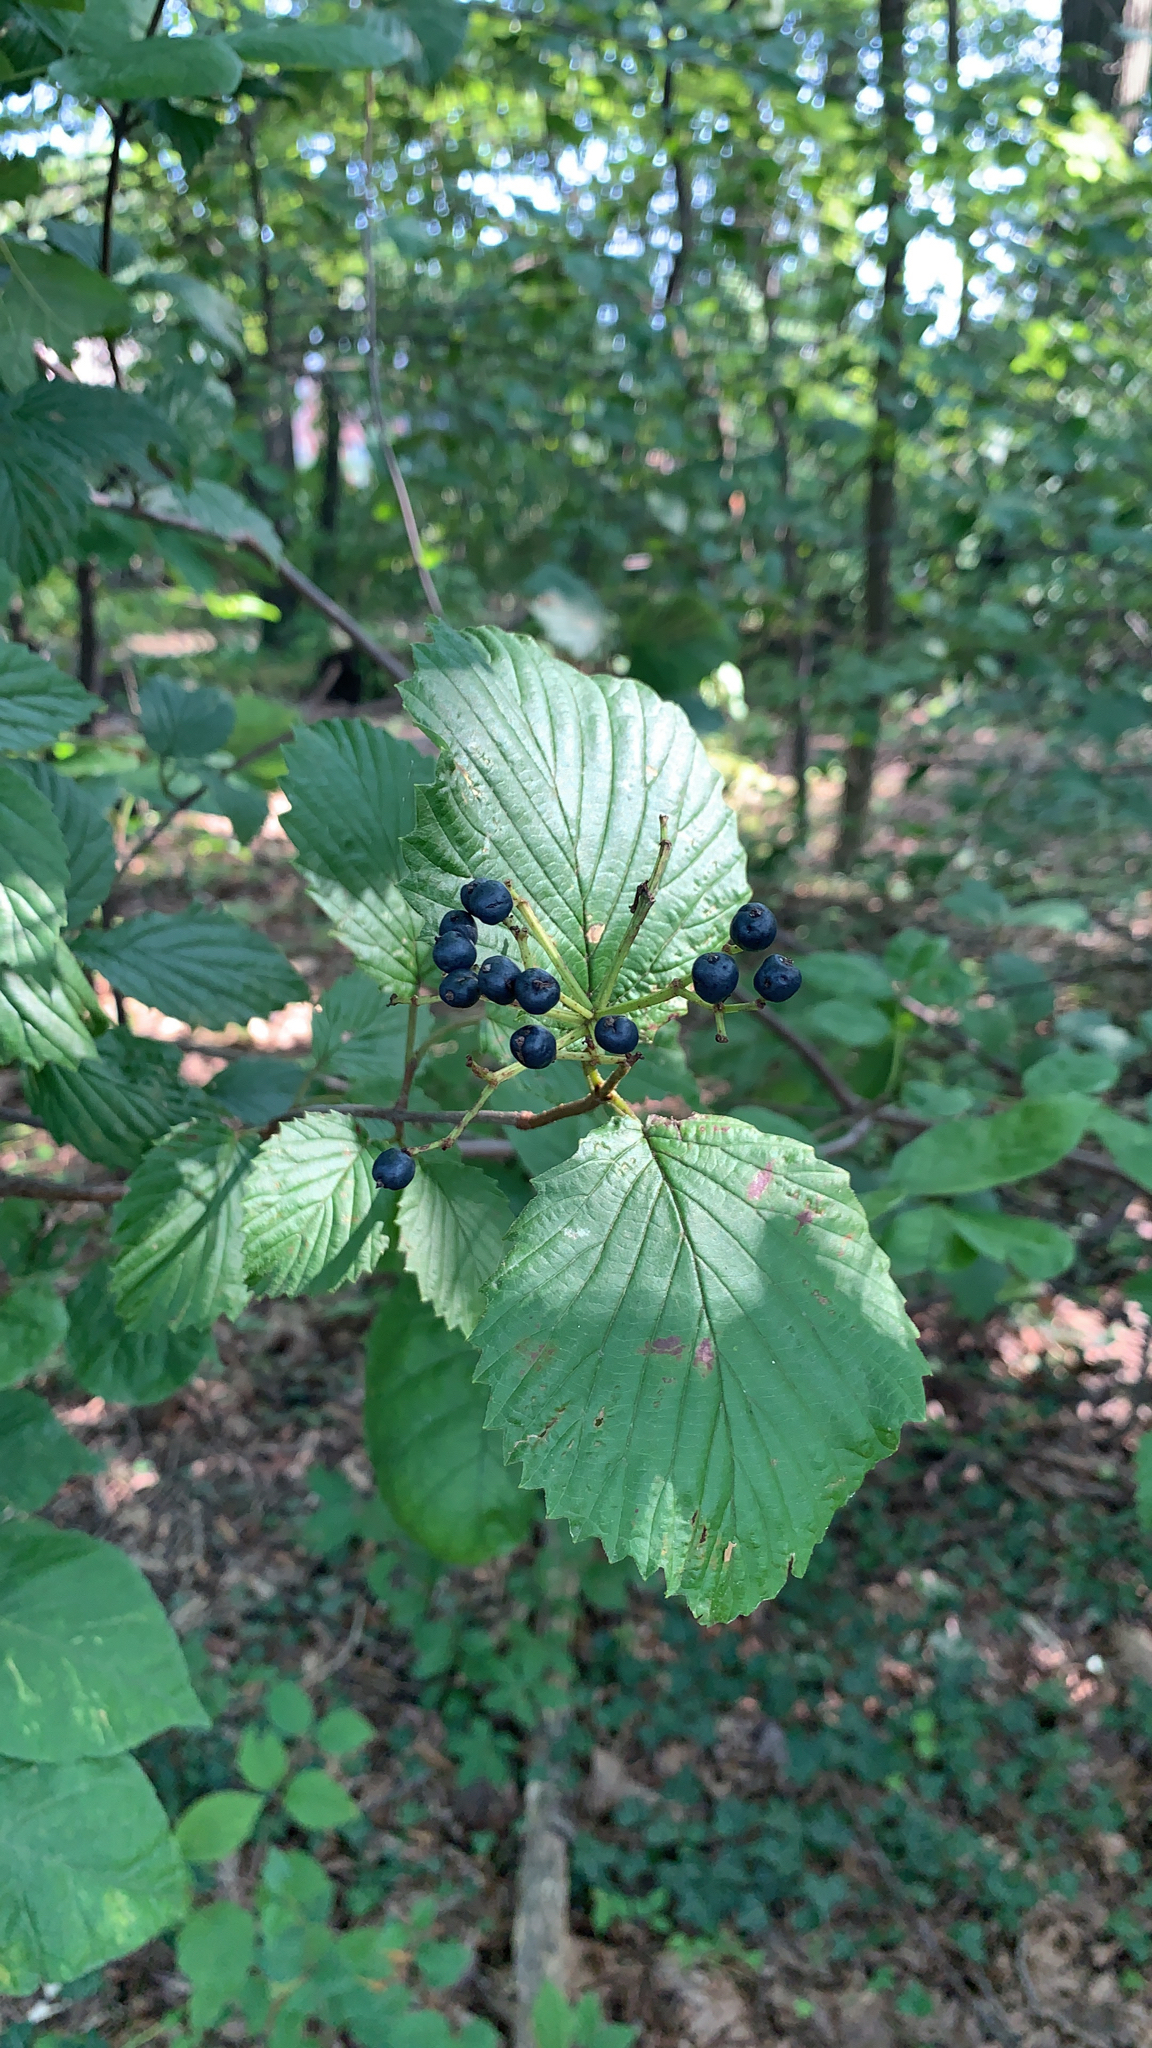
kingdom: Plantae
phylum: Tracheophyta
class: Magnoliopsida
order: Dipsacales
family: Viburnaceae
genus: Viburnum
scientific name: Viburnum dentatum
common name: Arrow-wood
